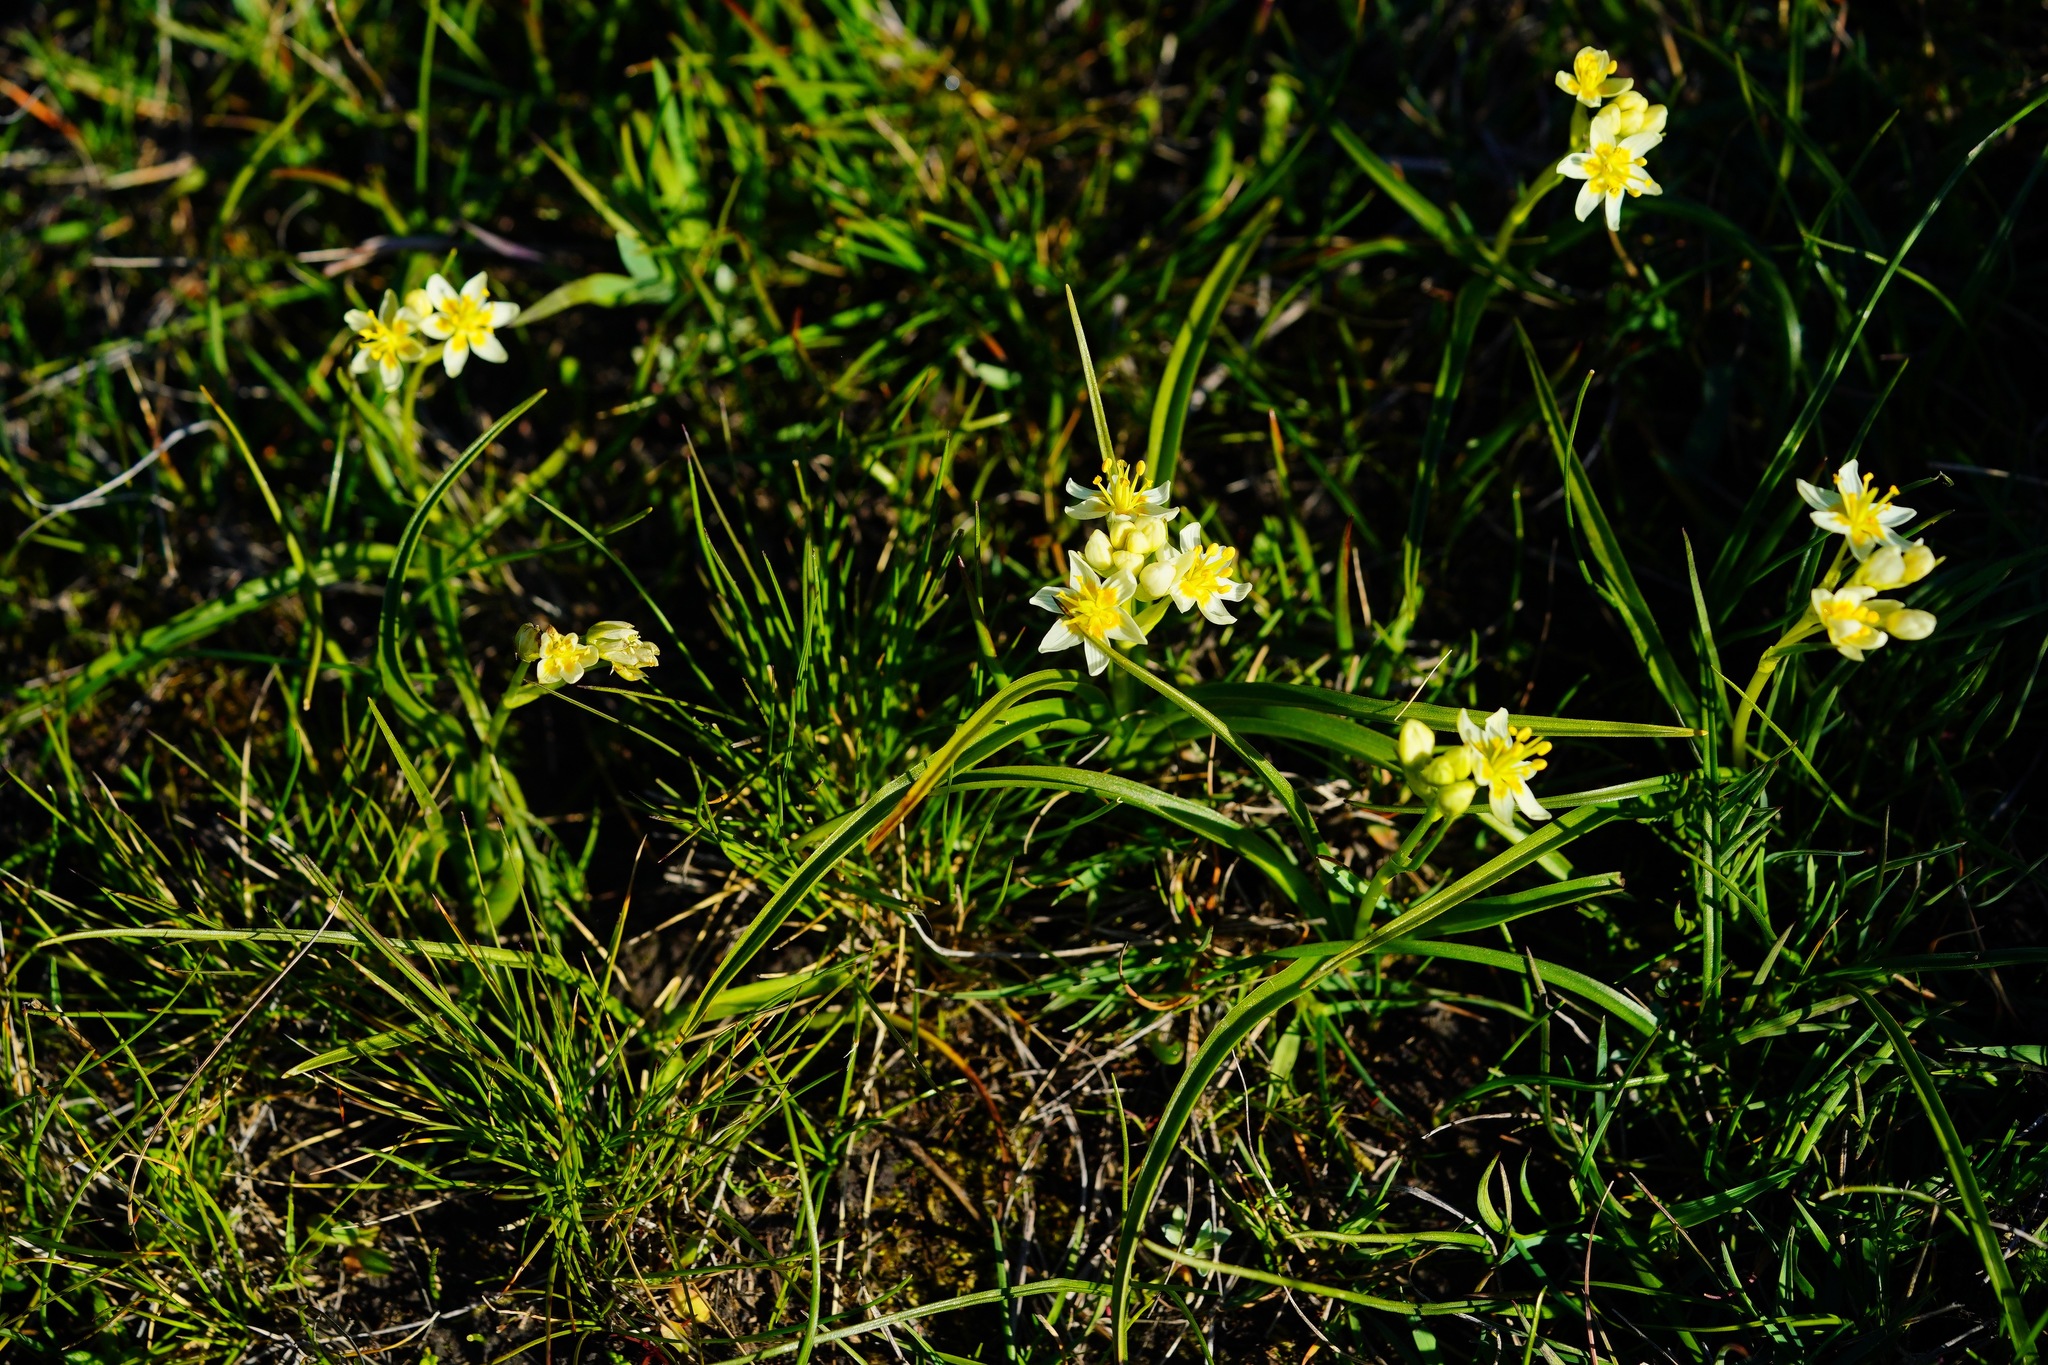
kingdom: Plantae
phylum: Tracheophyta
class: Liliopsida
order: Liliales
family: Melanthiaceae
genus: Toxicoscordion
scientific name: Toxicoscordion fremontii
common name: Fremont's death camas
